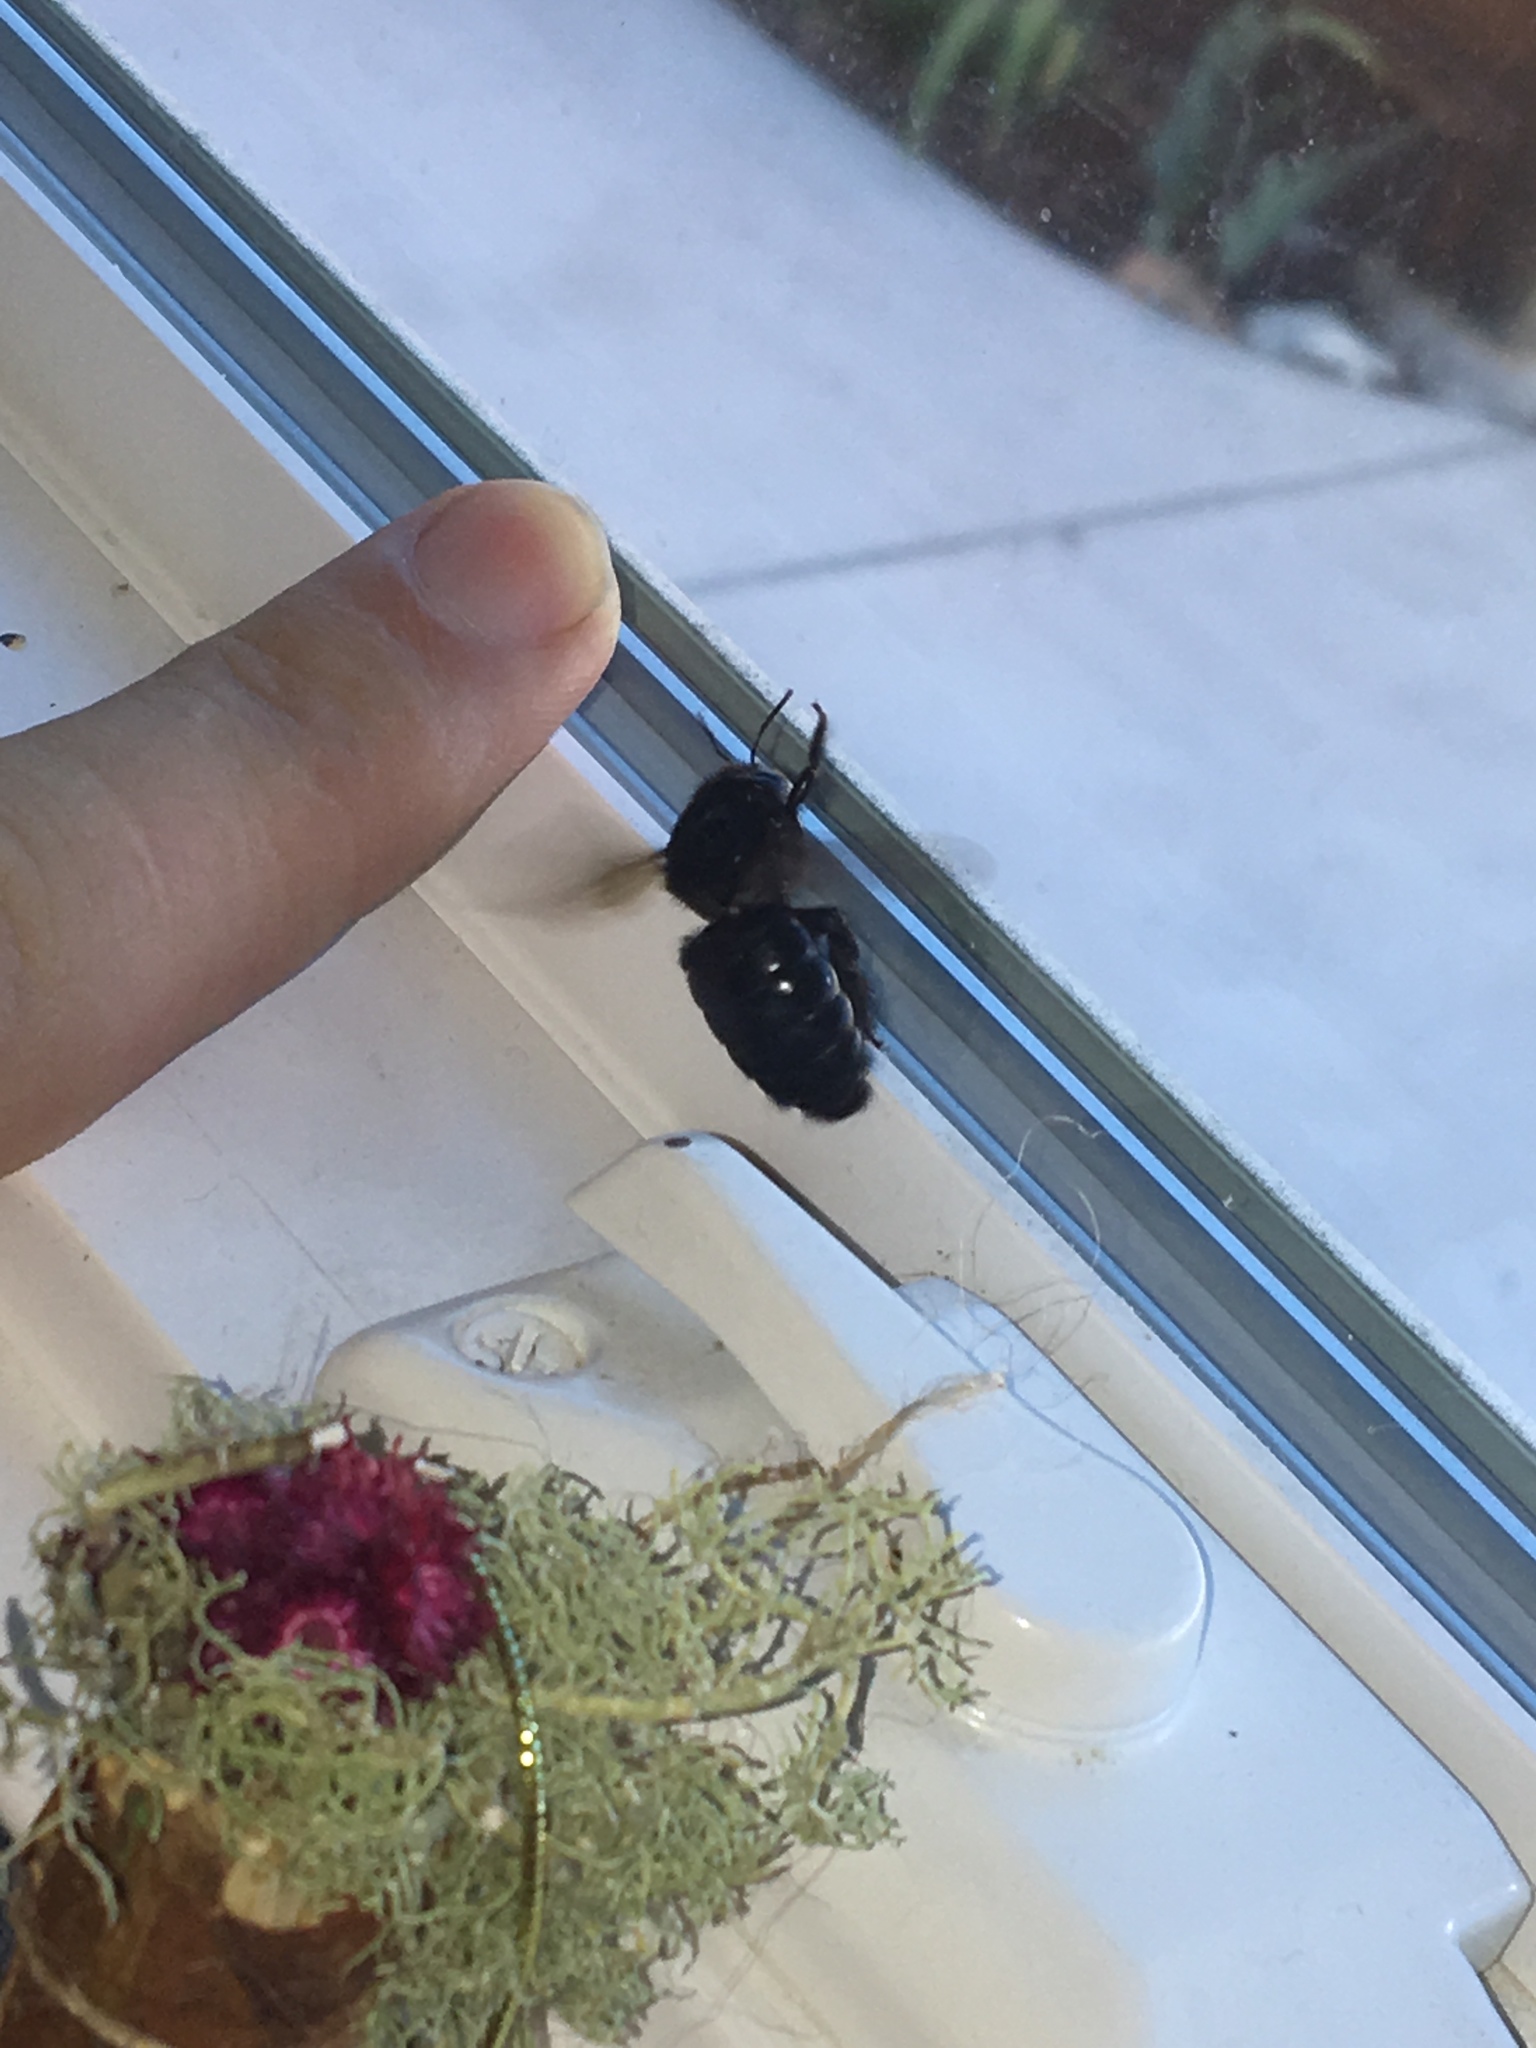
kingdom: Animalia
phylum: Arthropoda
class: Insecta
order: Hymenoptera
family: Apidae
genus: Xylocopa
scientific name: Xylocopa tabaniformis
